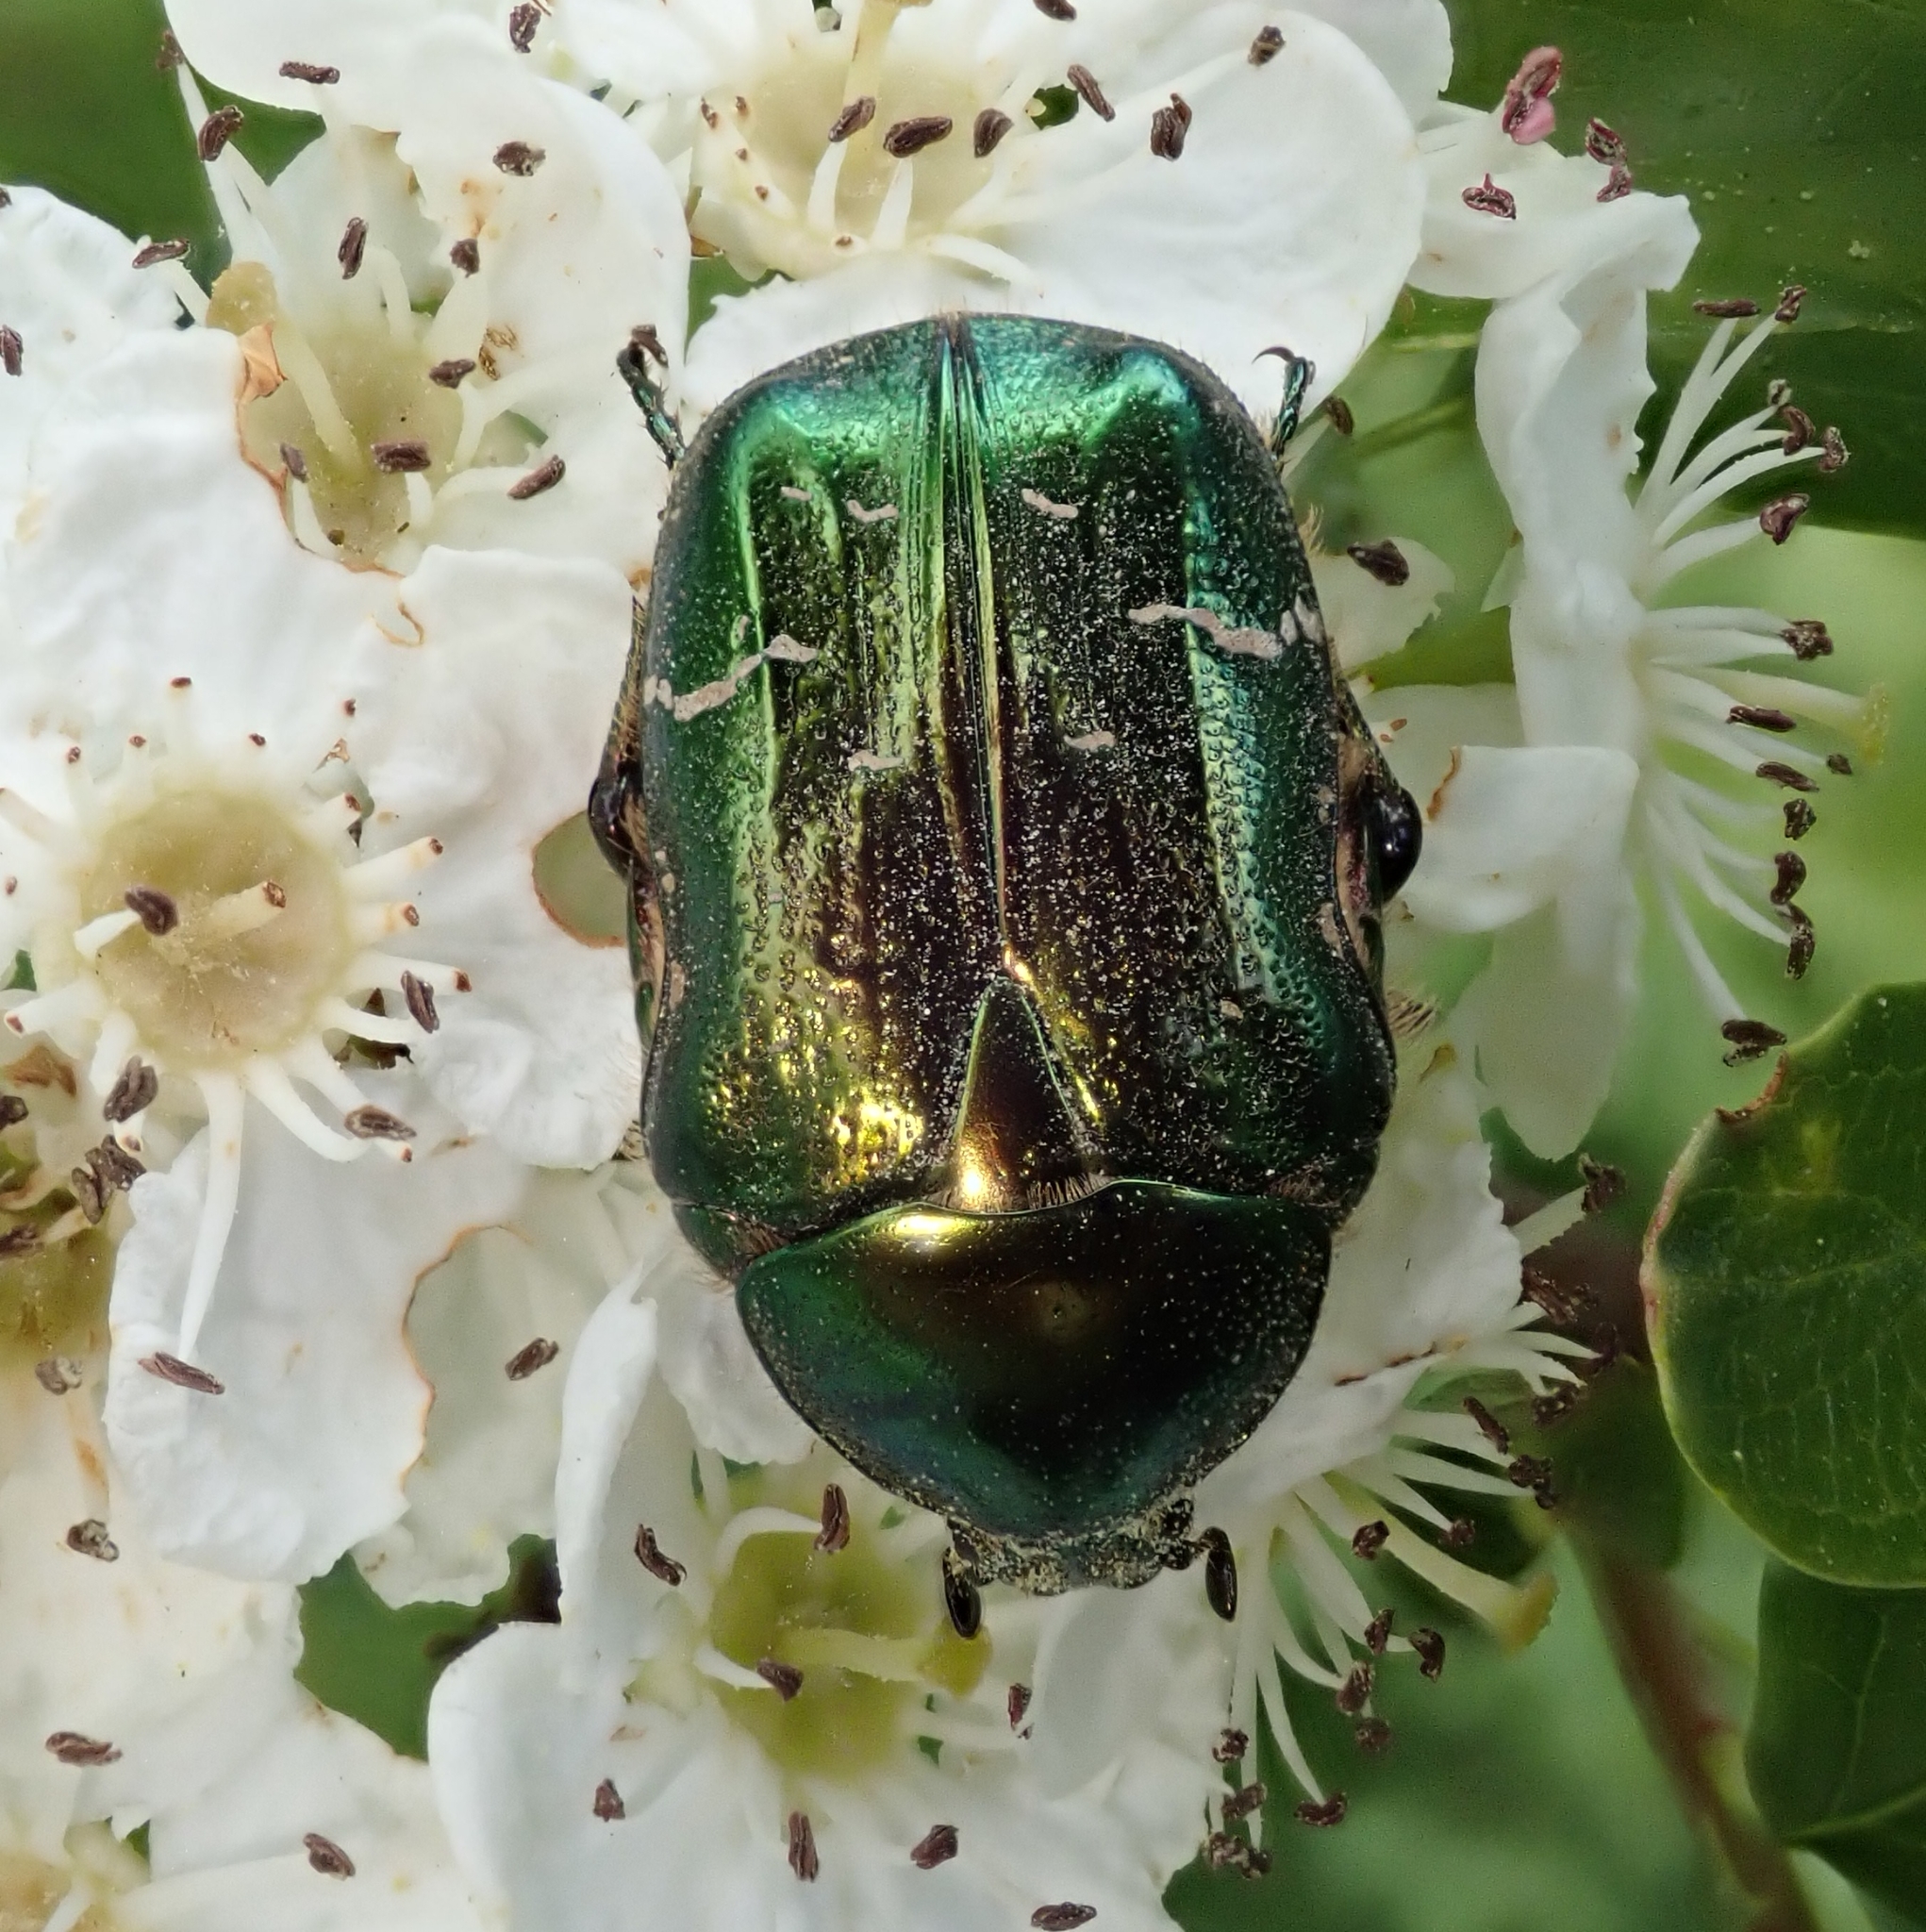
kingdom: Animalia
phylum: Arthropoda
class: Insecta
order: Coleoptera
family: Scarabaeidae
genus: Cetonia
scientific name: Cetonia aurata
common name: Rose chafer
